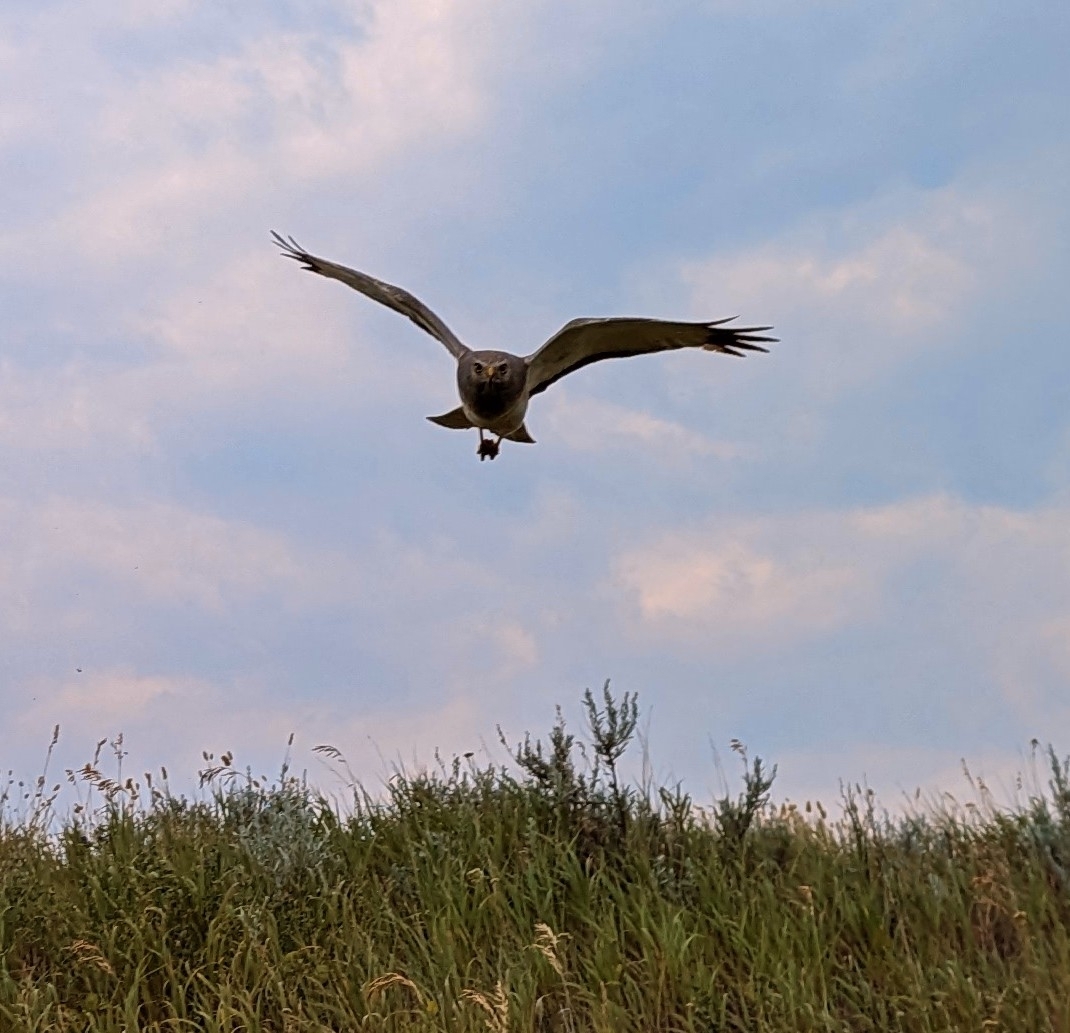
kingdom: Animalia
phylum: Chordata
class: Aves
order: Accipitriformes
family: Accipitridae
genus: Circus
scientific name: Circus cyaneus
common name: Hen harrier
